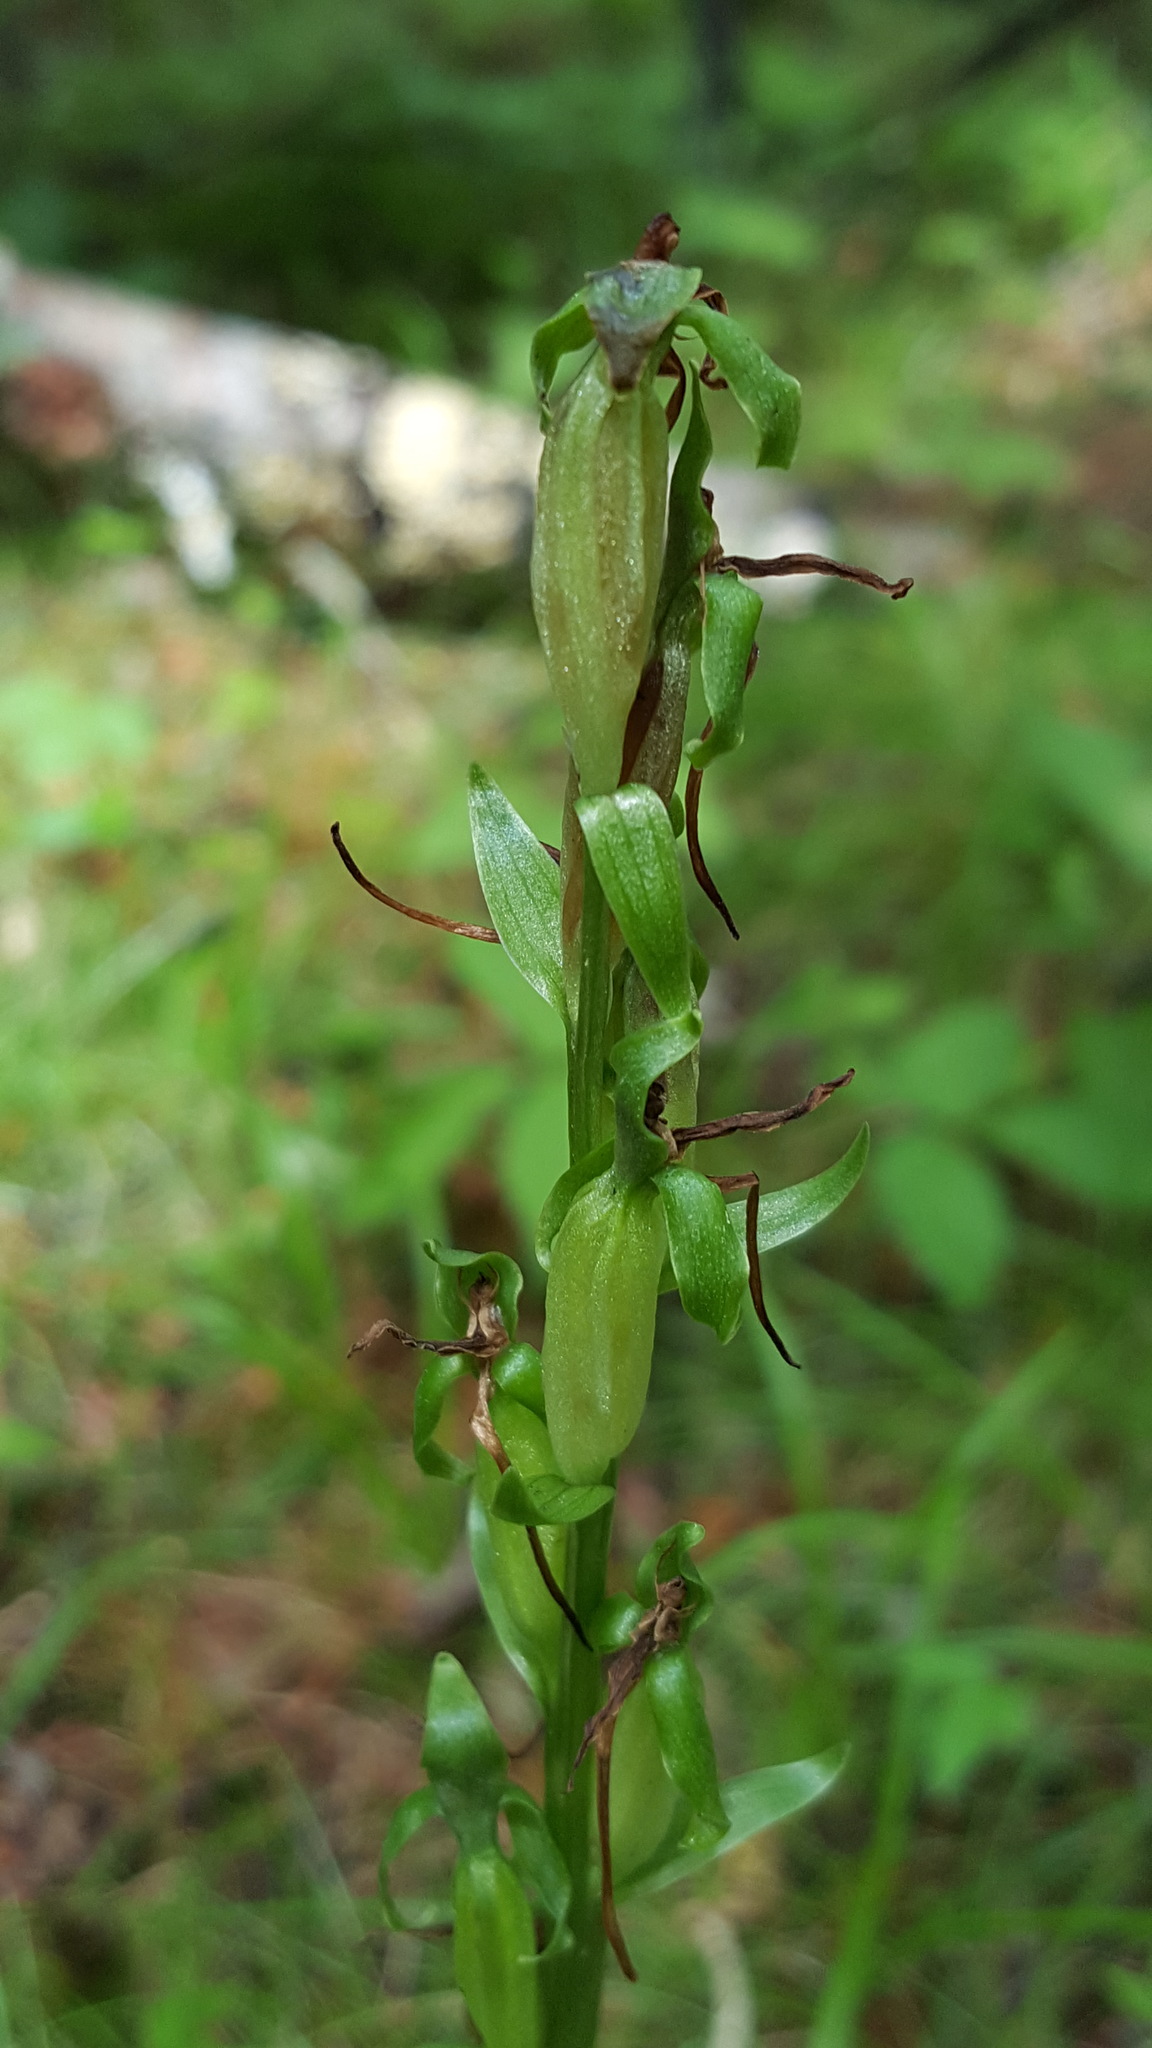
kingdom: Plantae
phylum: Tracheophyta
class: Liliopsida
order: Asparagales
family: Orchidaceae
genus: Platanthera
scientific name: Platanthera hookeri
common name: Hooker's orchid
